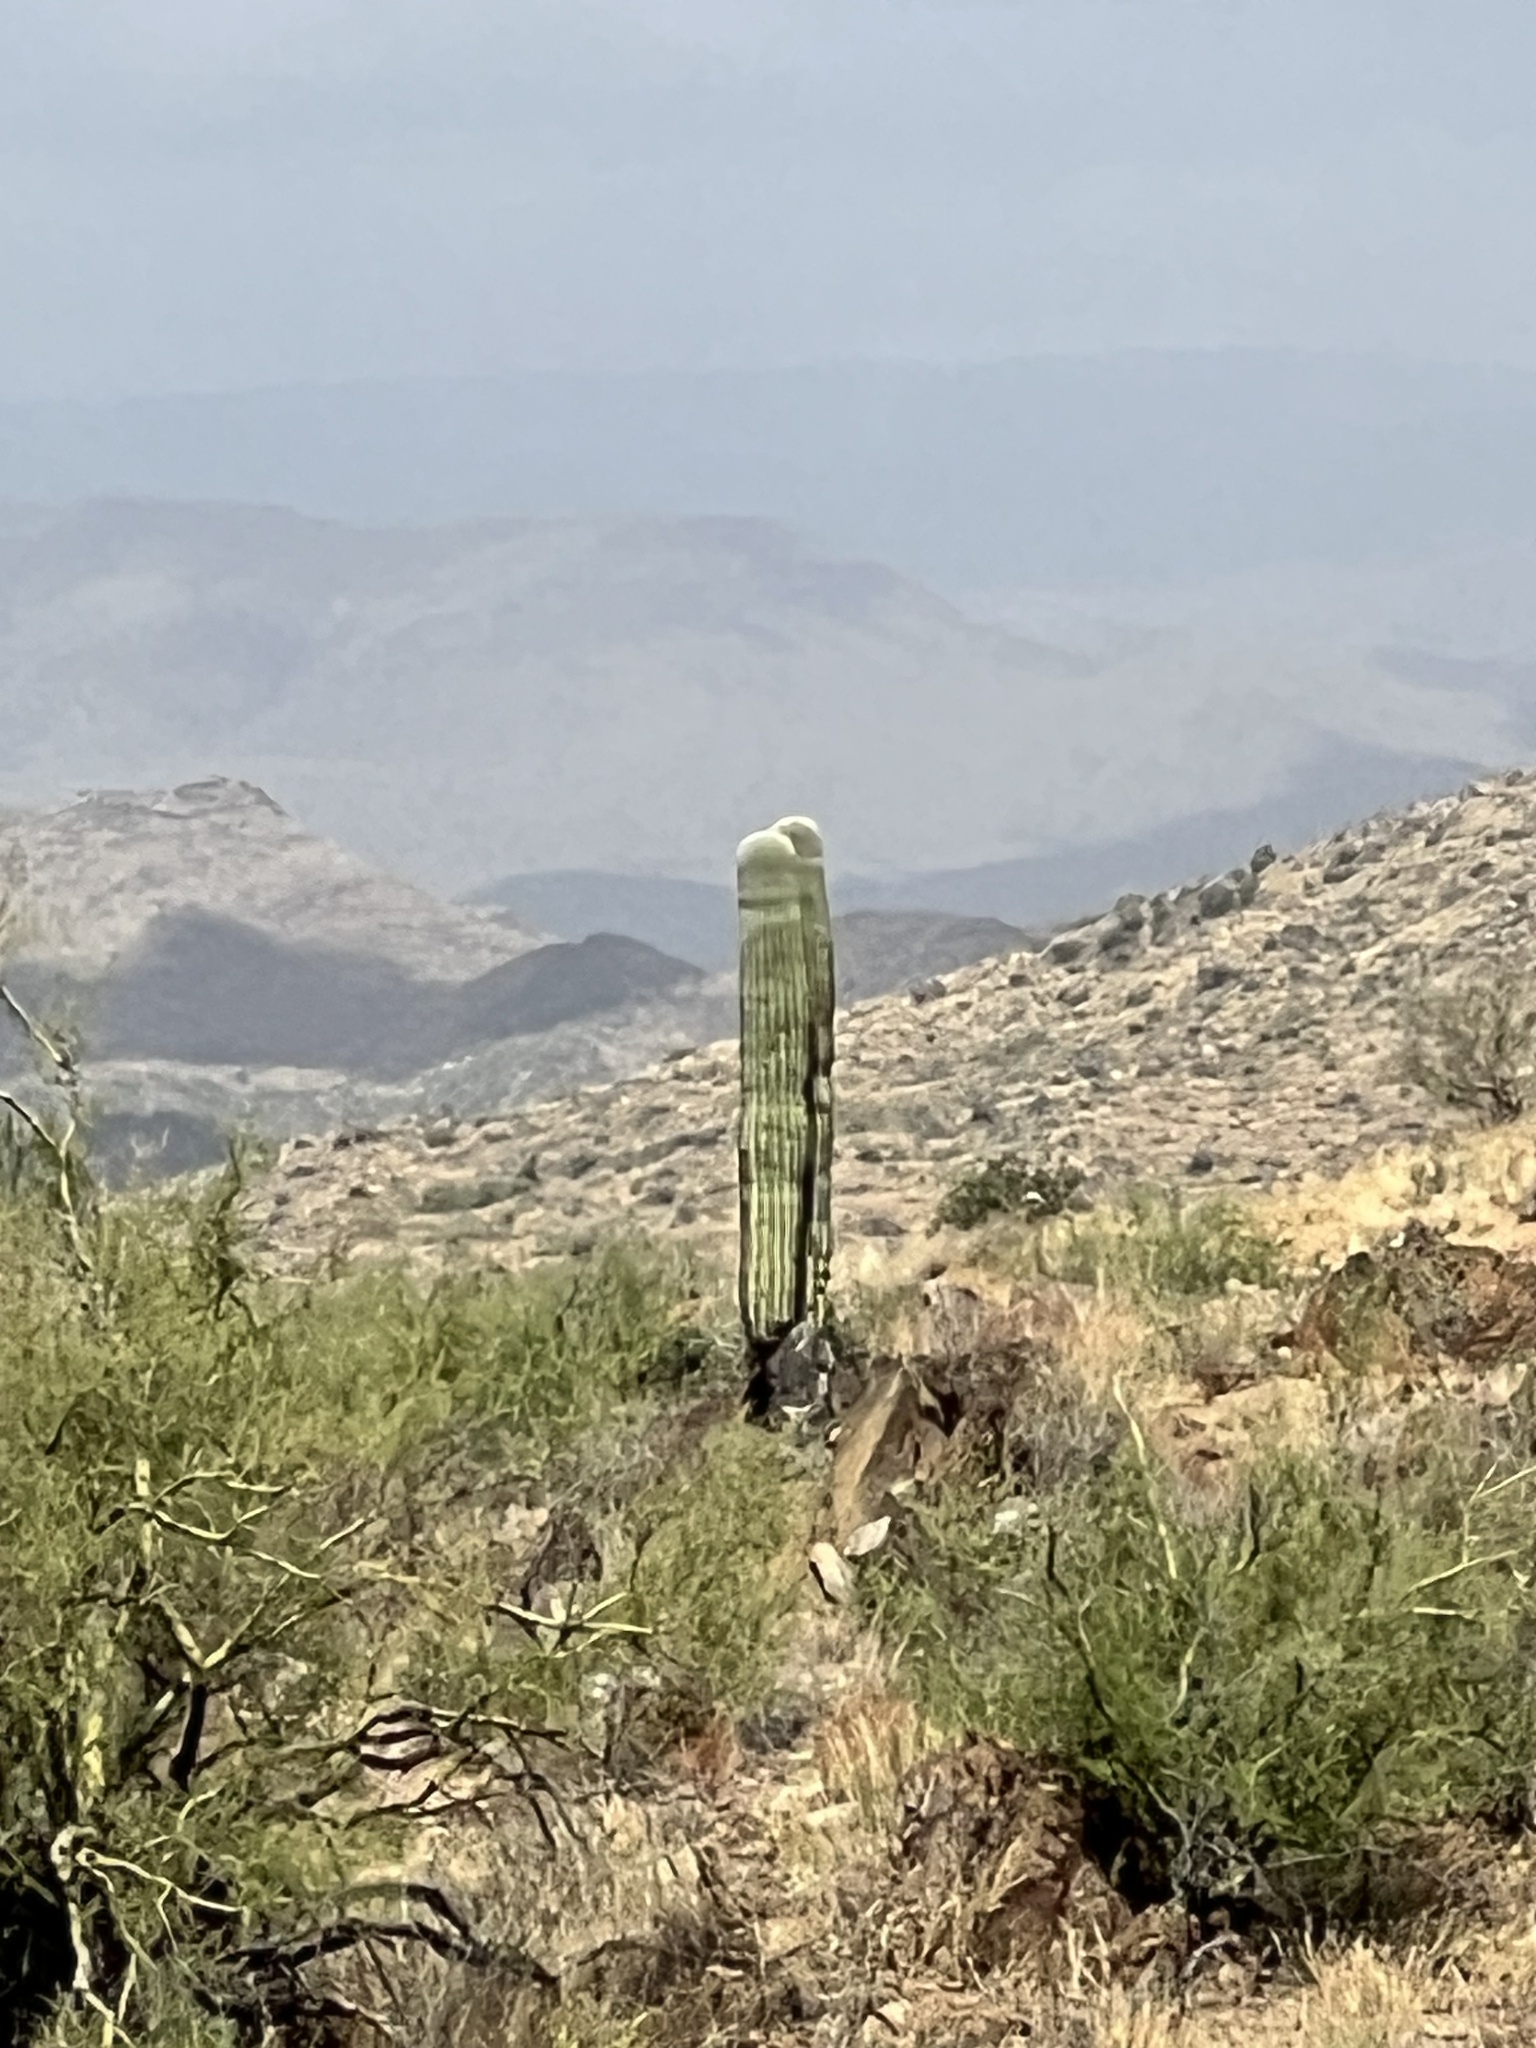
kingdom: Plantae
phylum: Tracheophyta
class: Magnoliopsida
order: Caryophyllales
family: Cactaceae
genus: Carnegiea
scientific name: Carnegiea gigantea
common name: Saguaro
